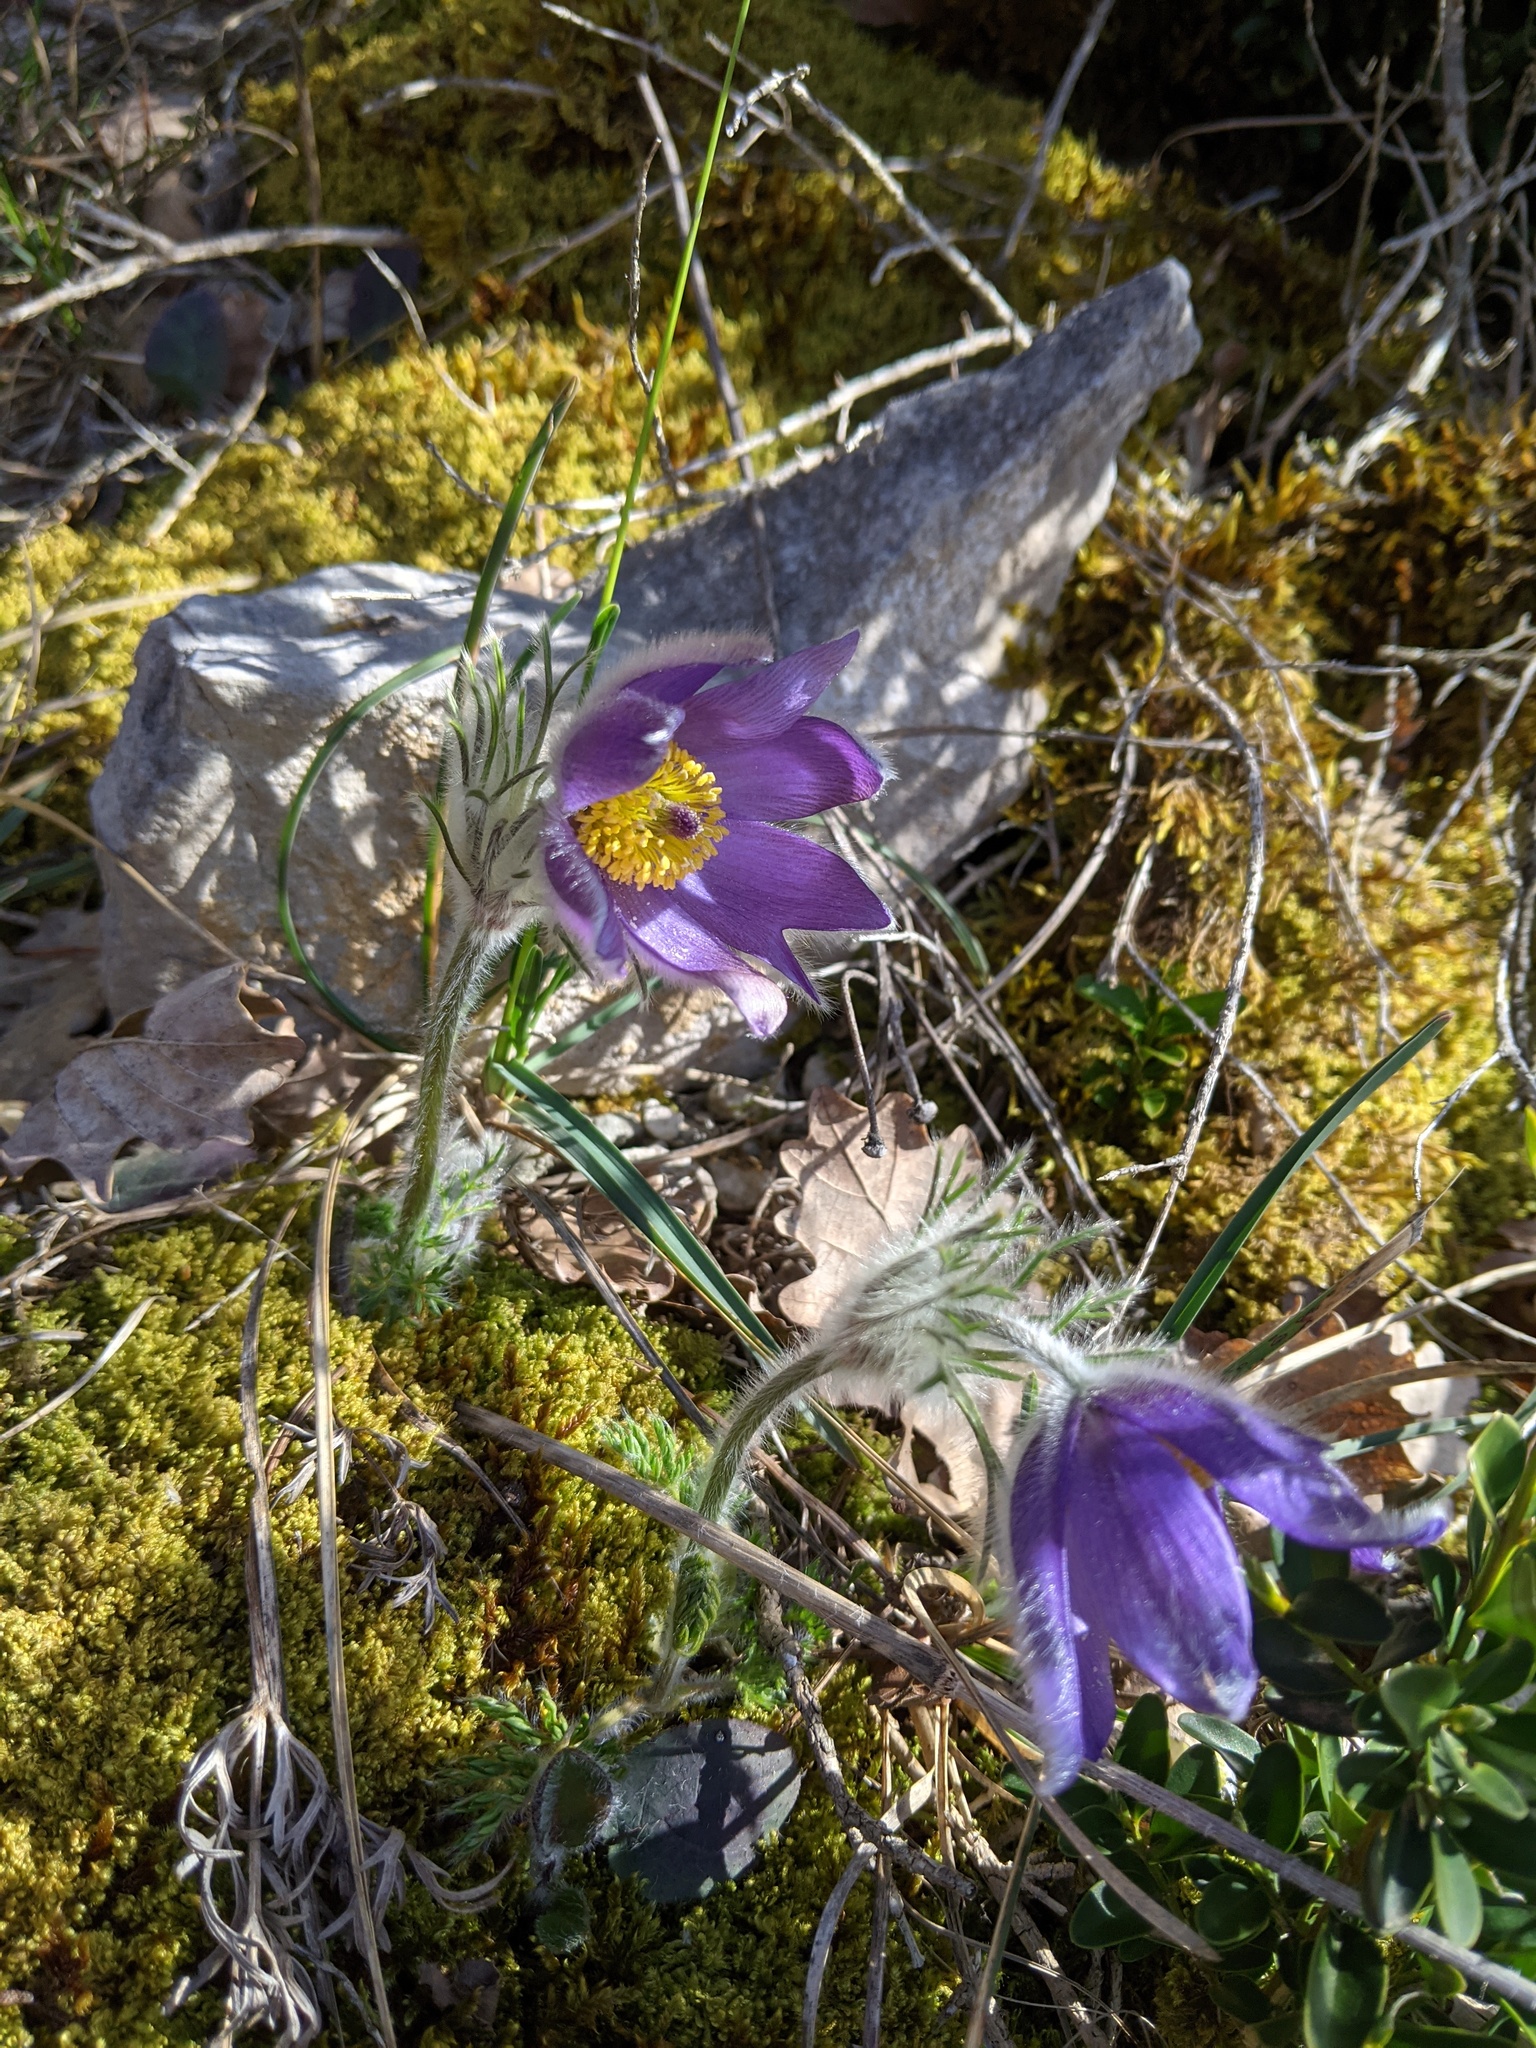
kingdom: Plantae
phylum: Tracheophyta
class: Magnoliopsida
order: Ranunculales
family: Ranunculaceae
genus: Pulsatilla
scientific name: Pulsatilla vulgaris
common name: Pasqueflower
